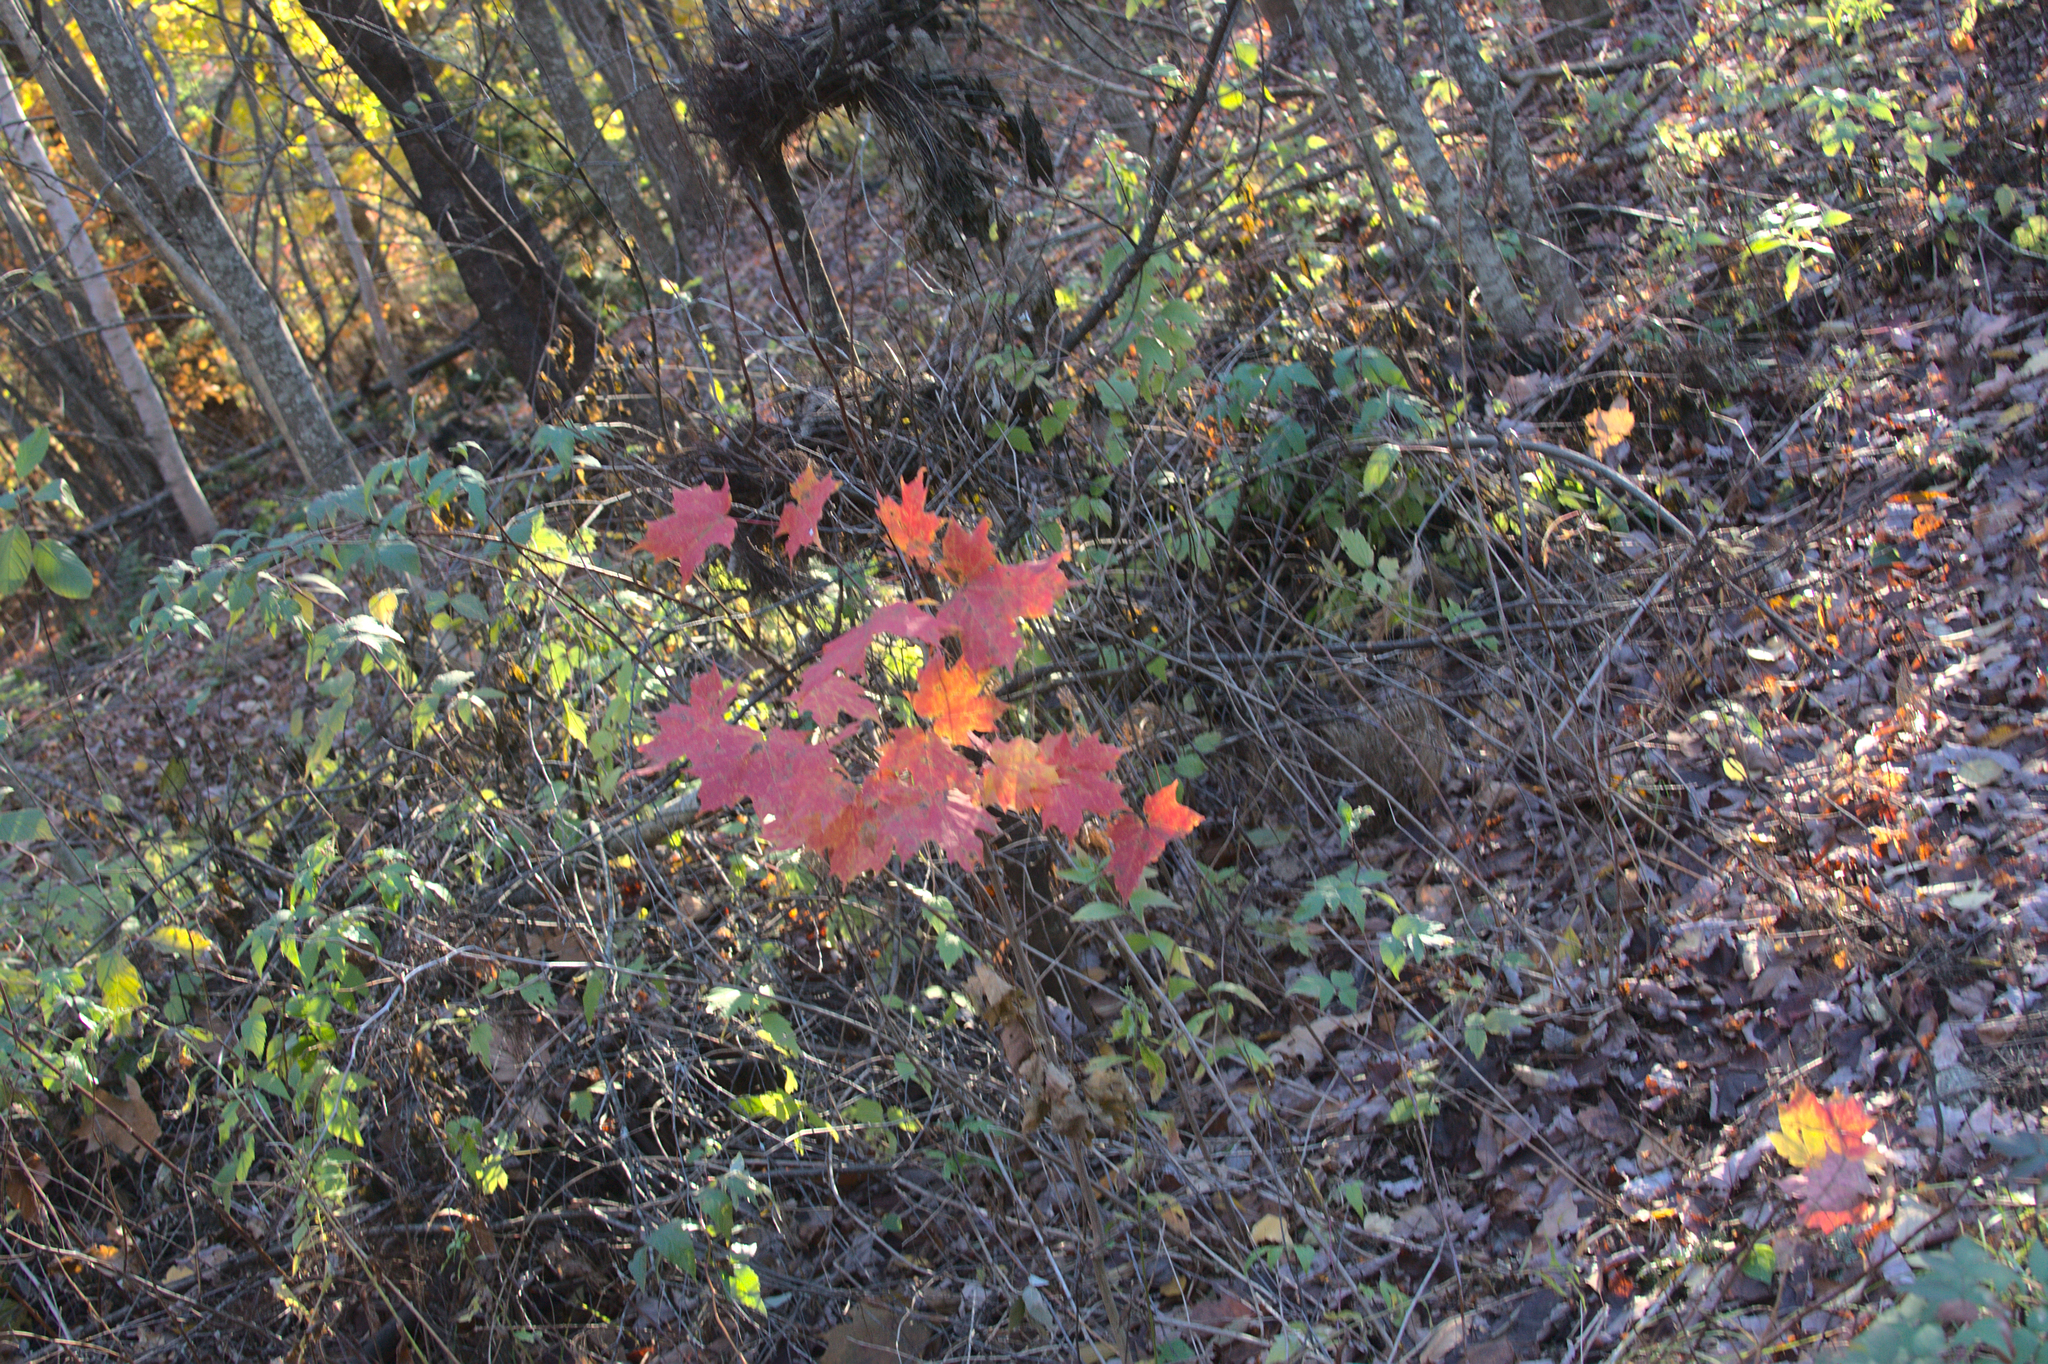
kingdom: Plantae
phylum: Tracheophyta
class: Magnoliopsida
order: Sapindales
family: Sapindaceae
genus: Acer
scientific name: Acer saccharum
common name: Sugar maple
